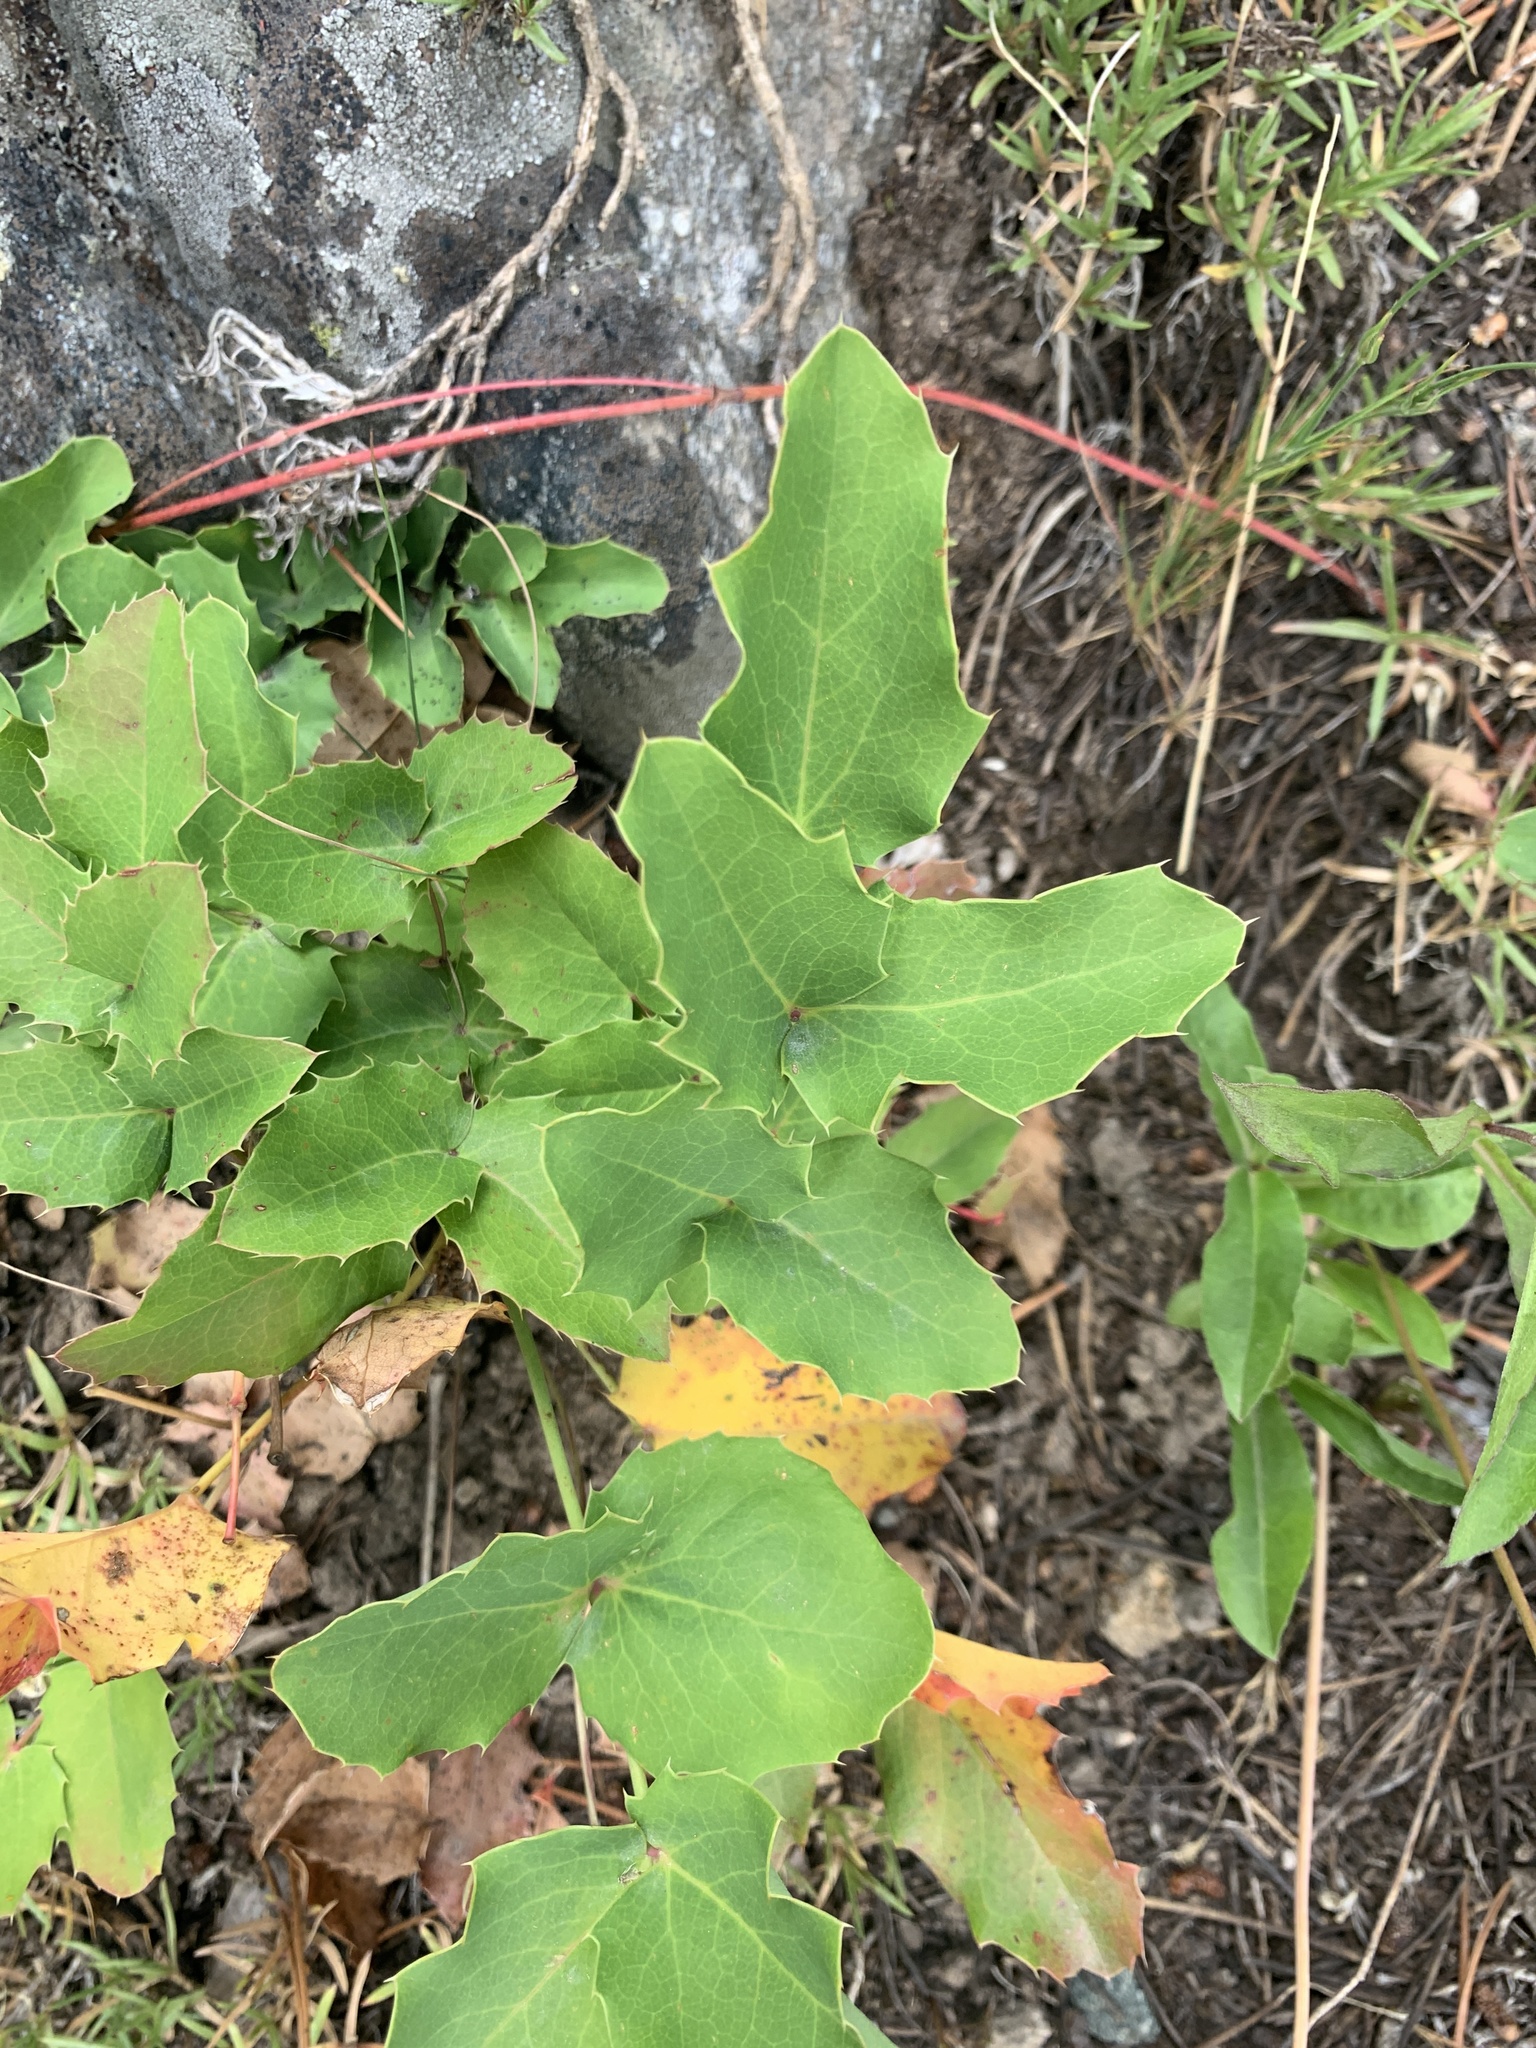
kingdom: Plantae
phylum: Tracheophyta
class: Magnoliopsida
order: Ranunculales
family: Berberidaceae
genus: Mahonia
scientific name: Mahonia repens
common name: Creeping oregon-grape
